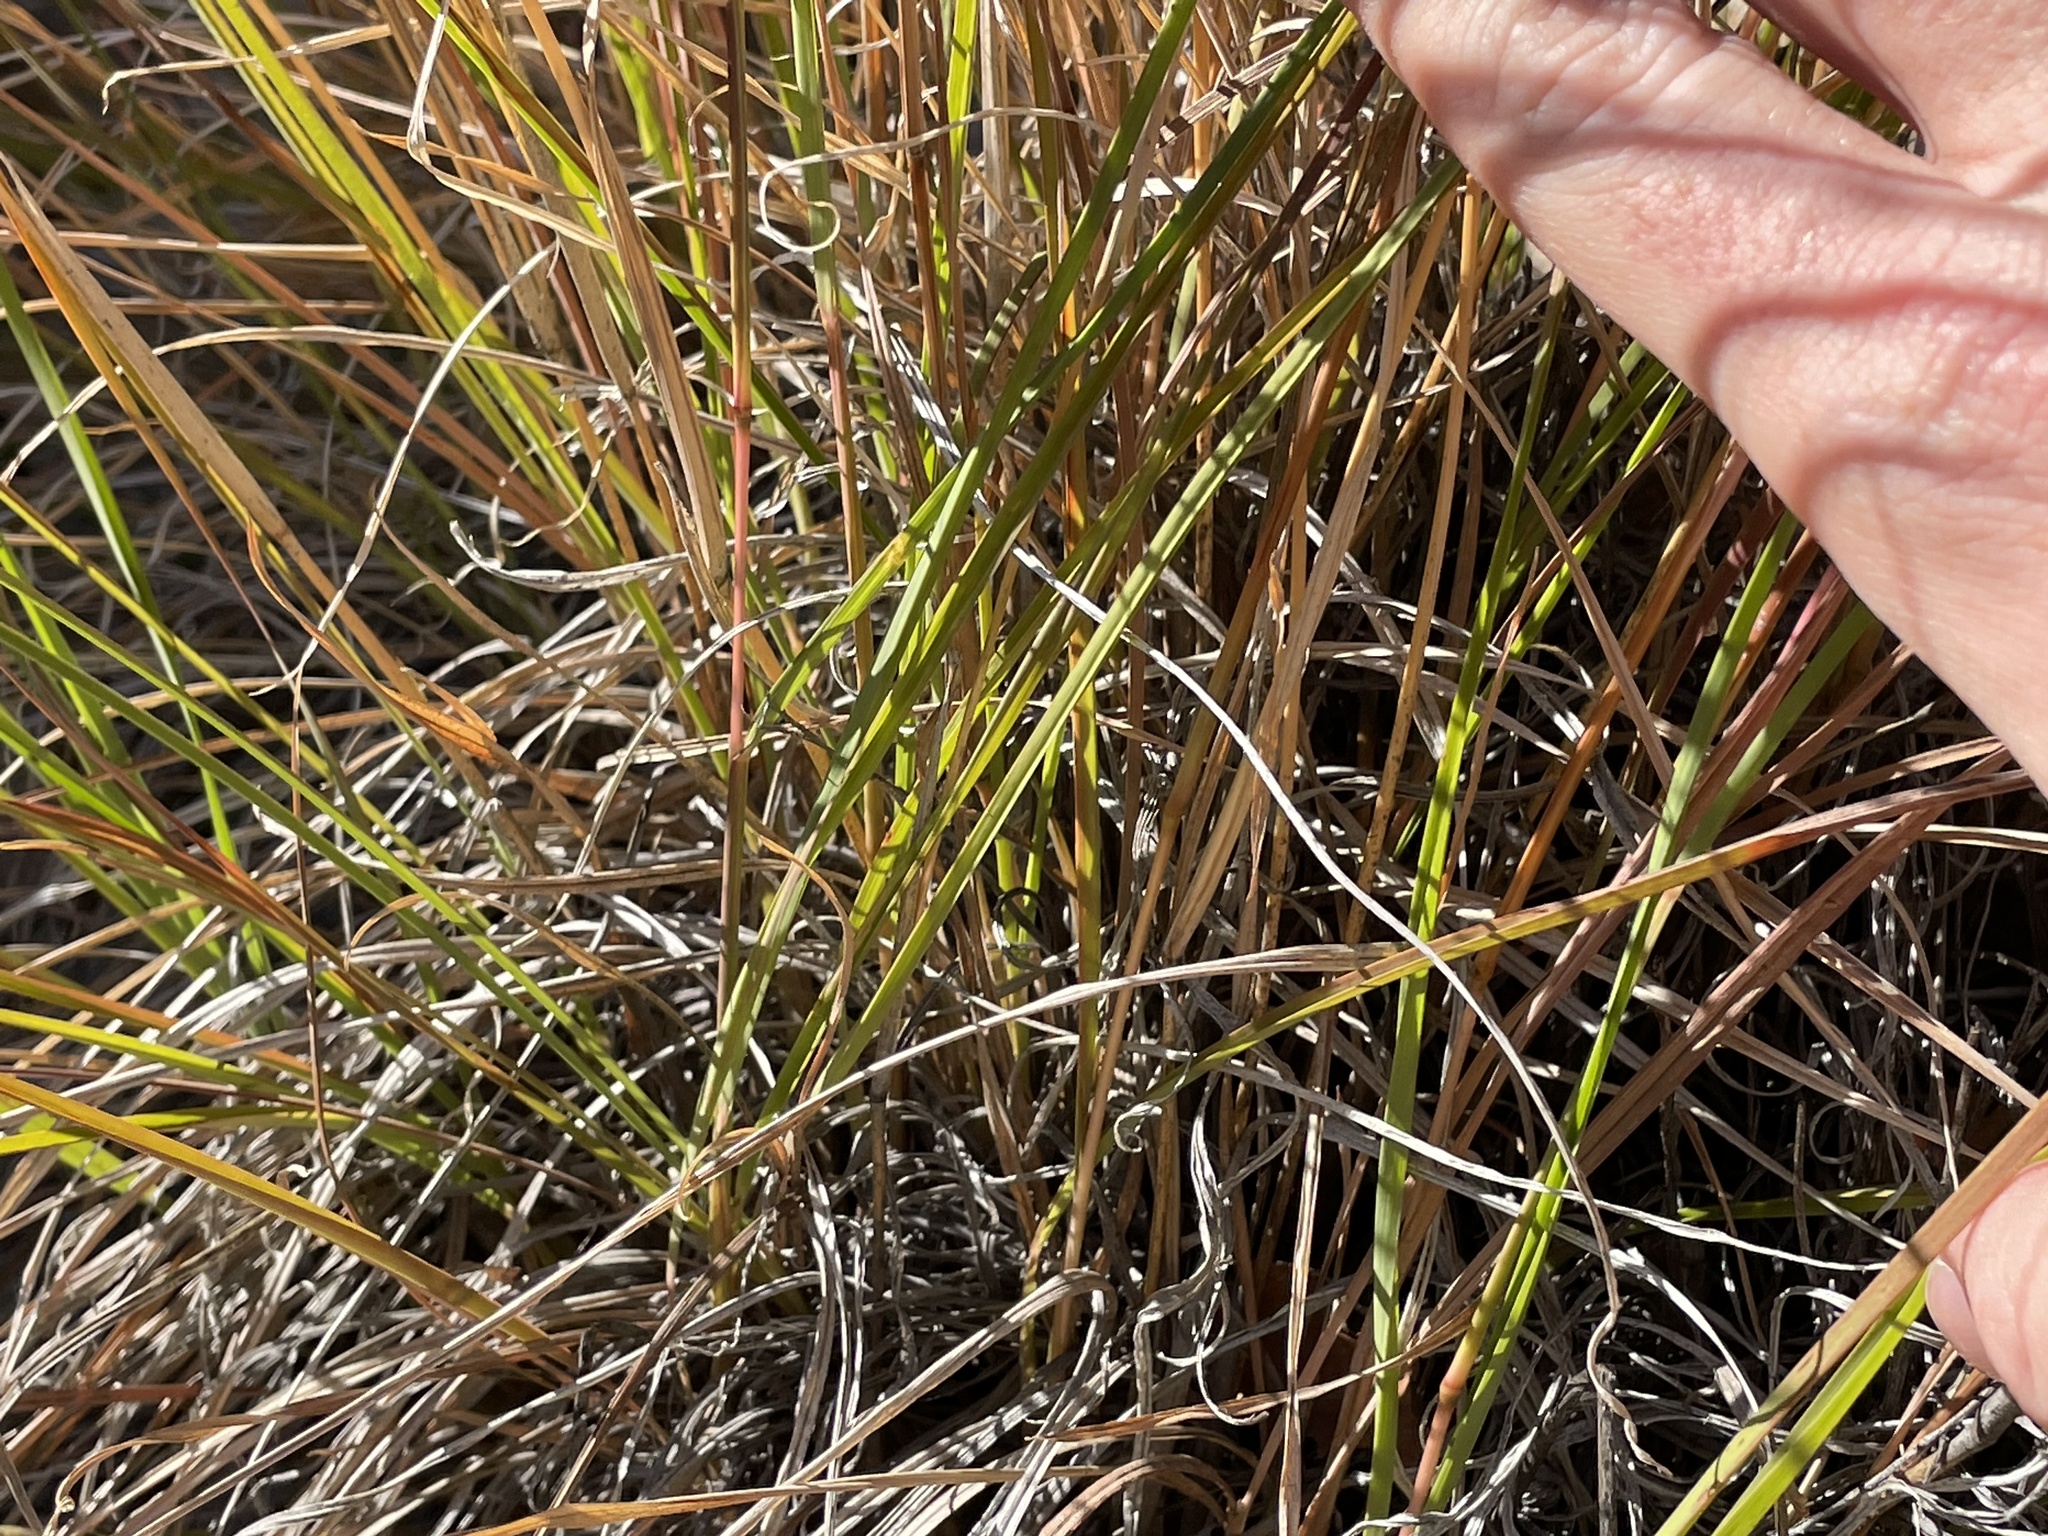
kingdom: Plantae
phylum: Tracheophyta
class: Liliopsida
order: Poales
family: Poaceae
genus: Schizachyrium
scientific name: Schizachyrium scoparium
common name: Little bluestem
